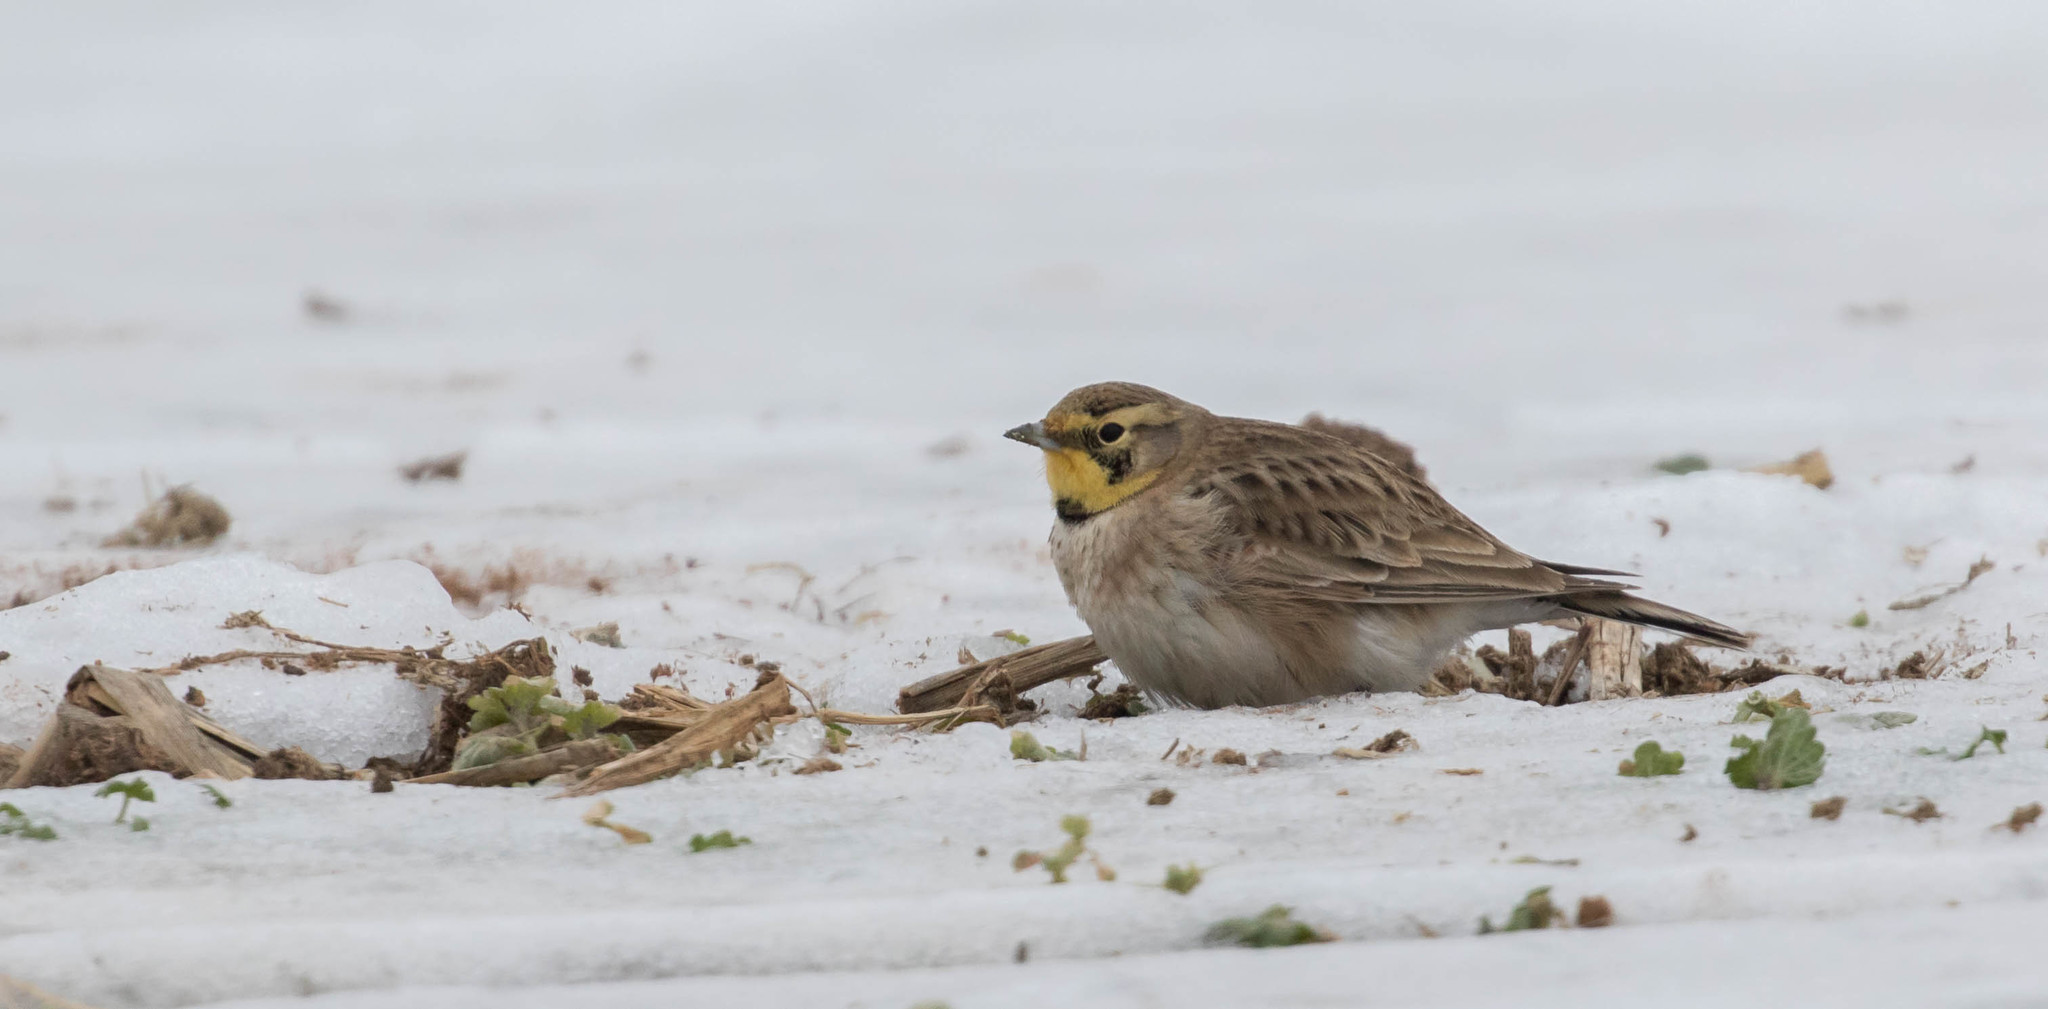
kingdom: Animalia
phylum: Chordata
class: Aves
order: Passeriformes
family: Alaudidae
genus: Eremophila
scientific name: Eremophila alpestris
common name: Horned lark
